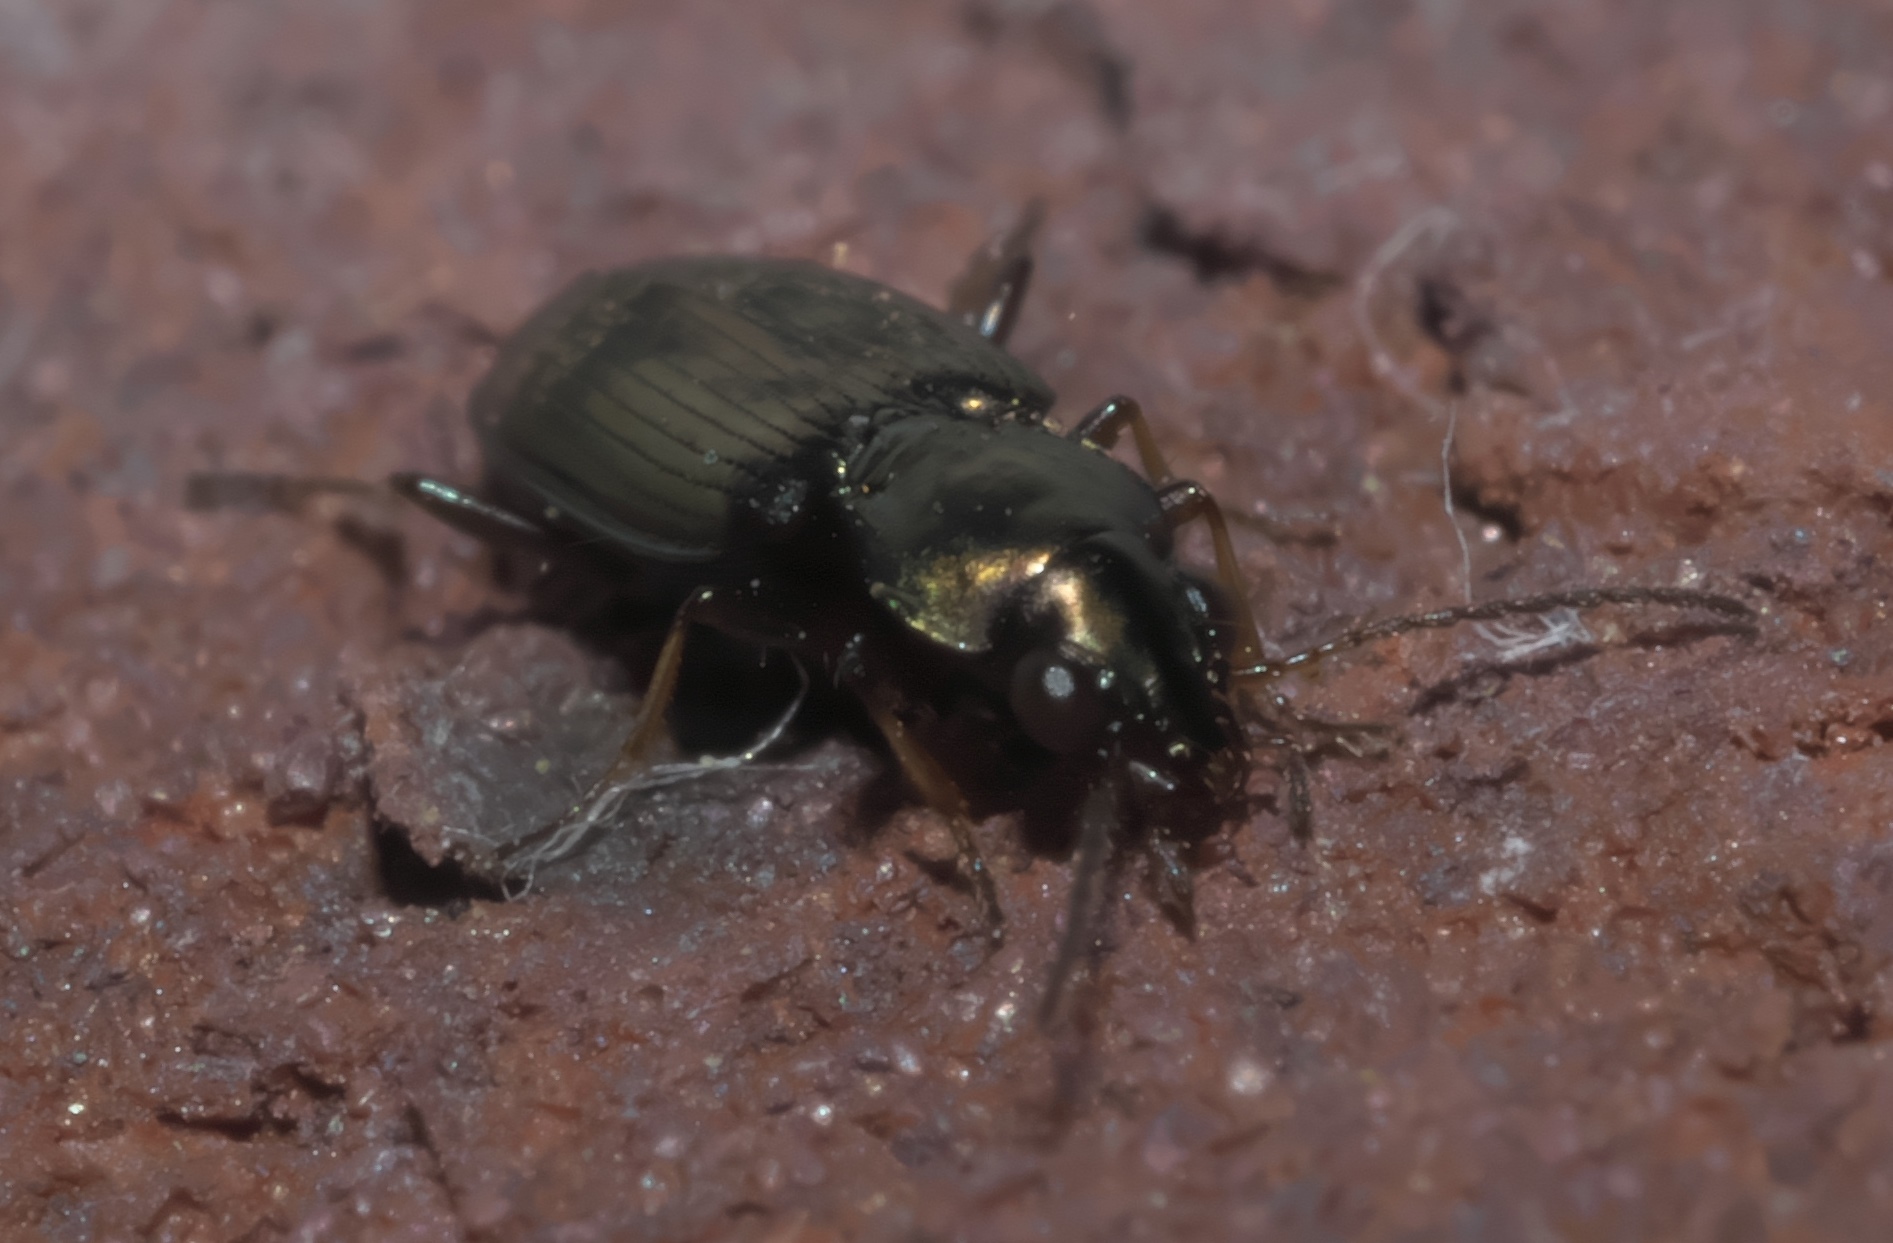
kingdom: Animalia
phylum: Arthropoda
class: Insecta
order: Coleoptera
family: Carabidae
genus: Bembidion
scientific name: Bembidion rapidum
